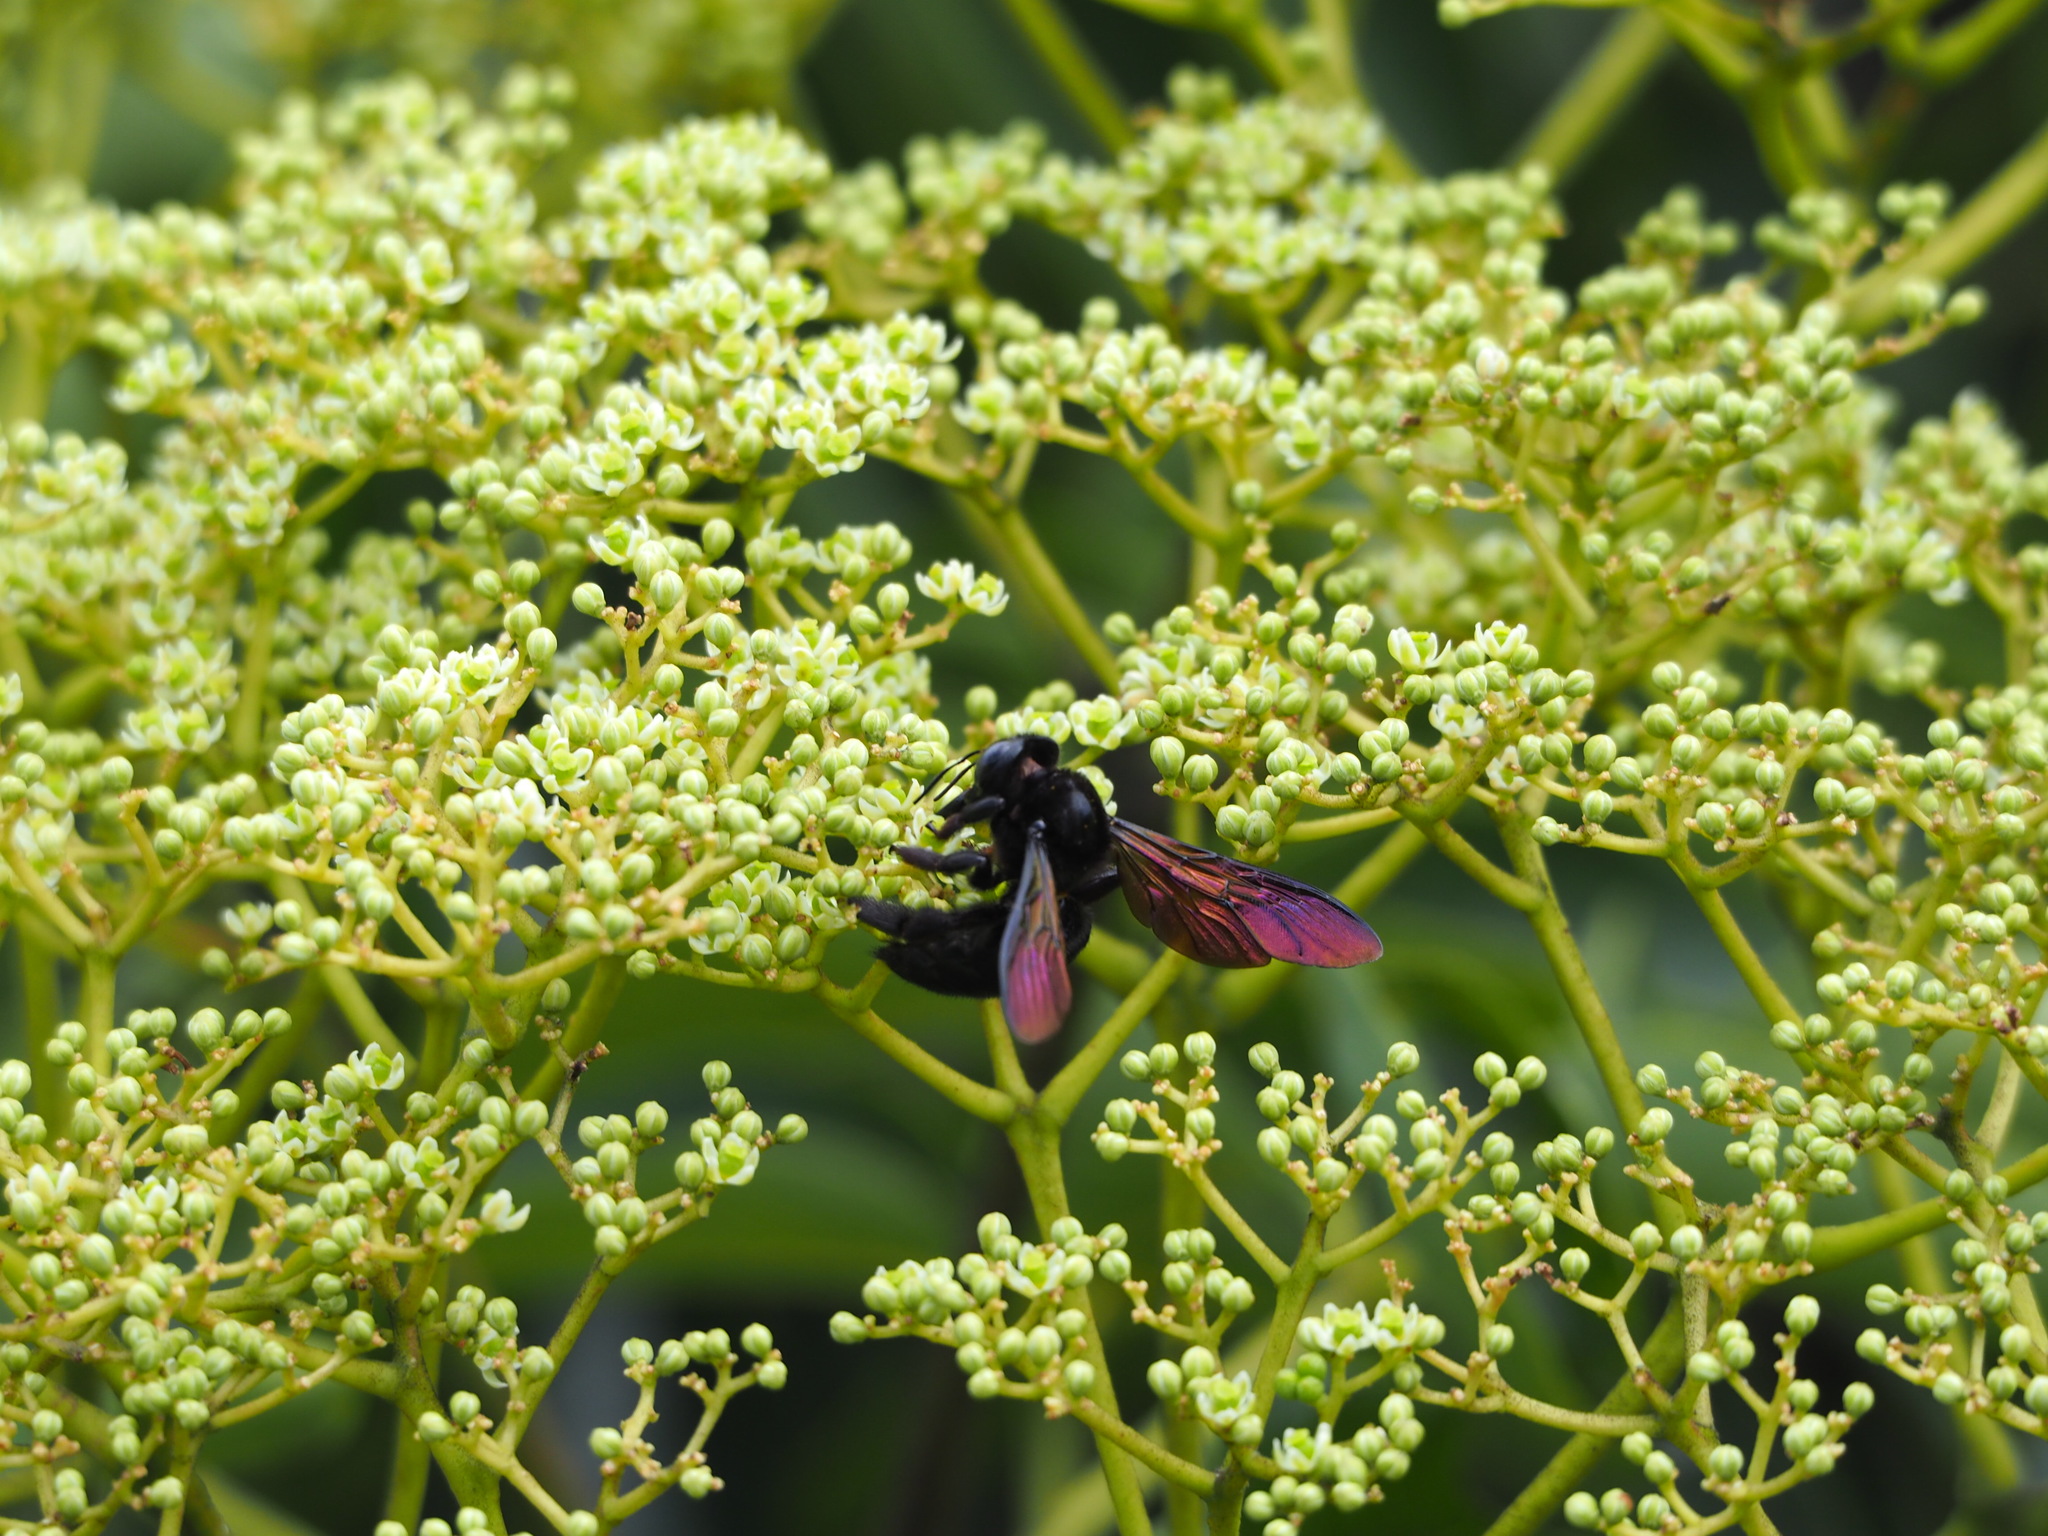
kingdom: Animalia
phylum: Arthropoda
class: Insecta
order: Hymenoptera
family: Apidae
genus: Xylocopa
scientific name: Xylocopa tranquebarorum
